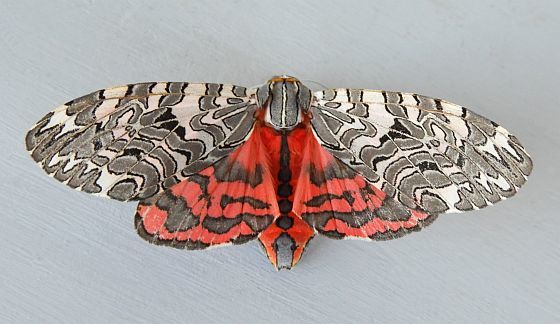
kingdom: Animalia
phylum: Arthropoda
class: Insecta
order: Lepidoptera
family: Erebidae
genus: Arachnis
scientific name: Arachnis picta
